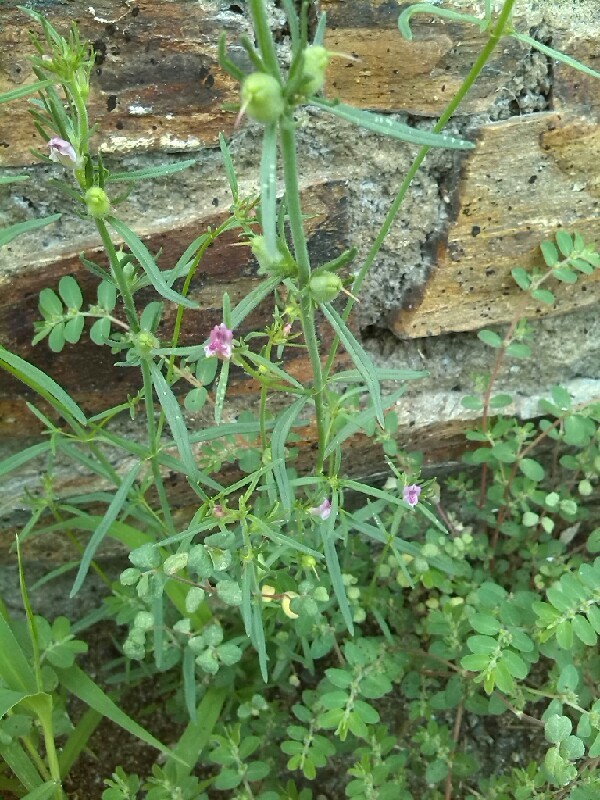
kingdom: Plantae
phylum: Tracheophyta
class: Magnoliopsida
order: Lamiales
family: Plantaginaceae
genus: Misopates
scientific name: Misopates orontium
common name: Weasel's-snout
